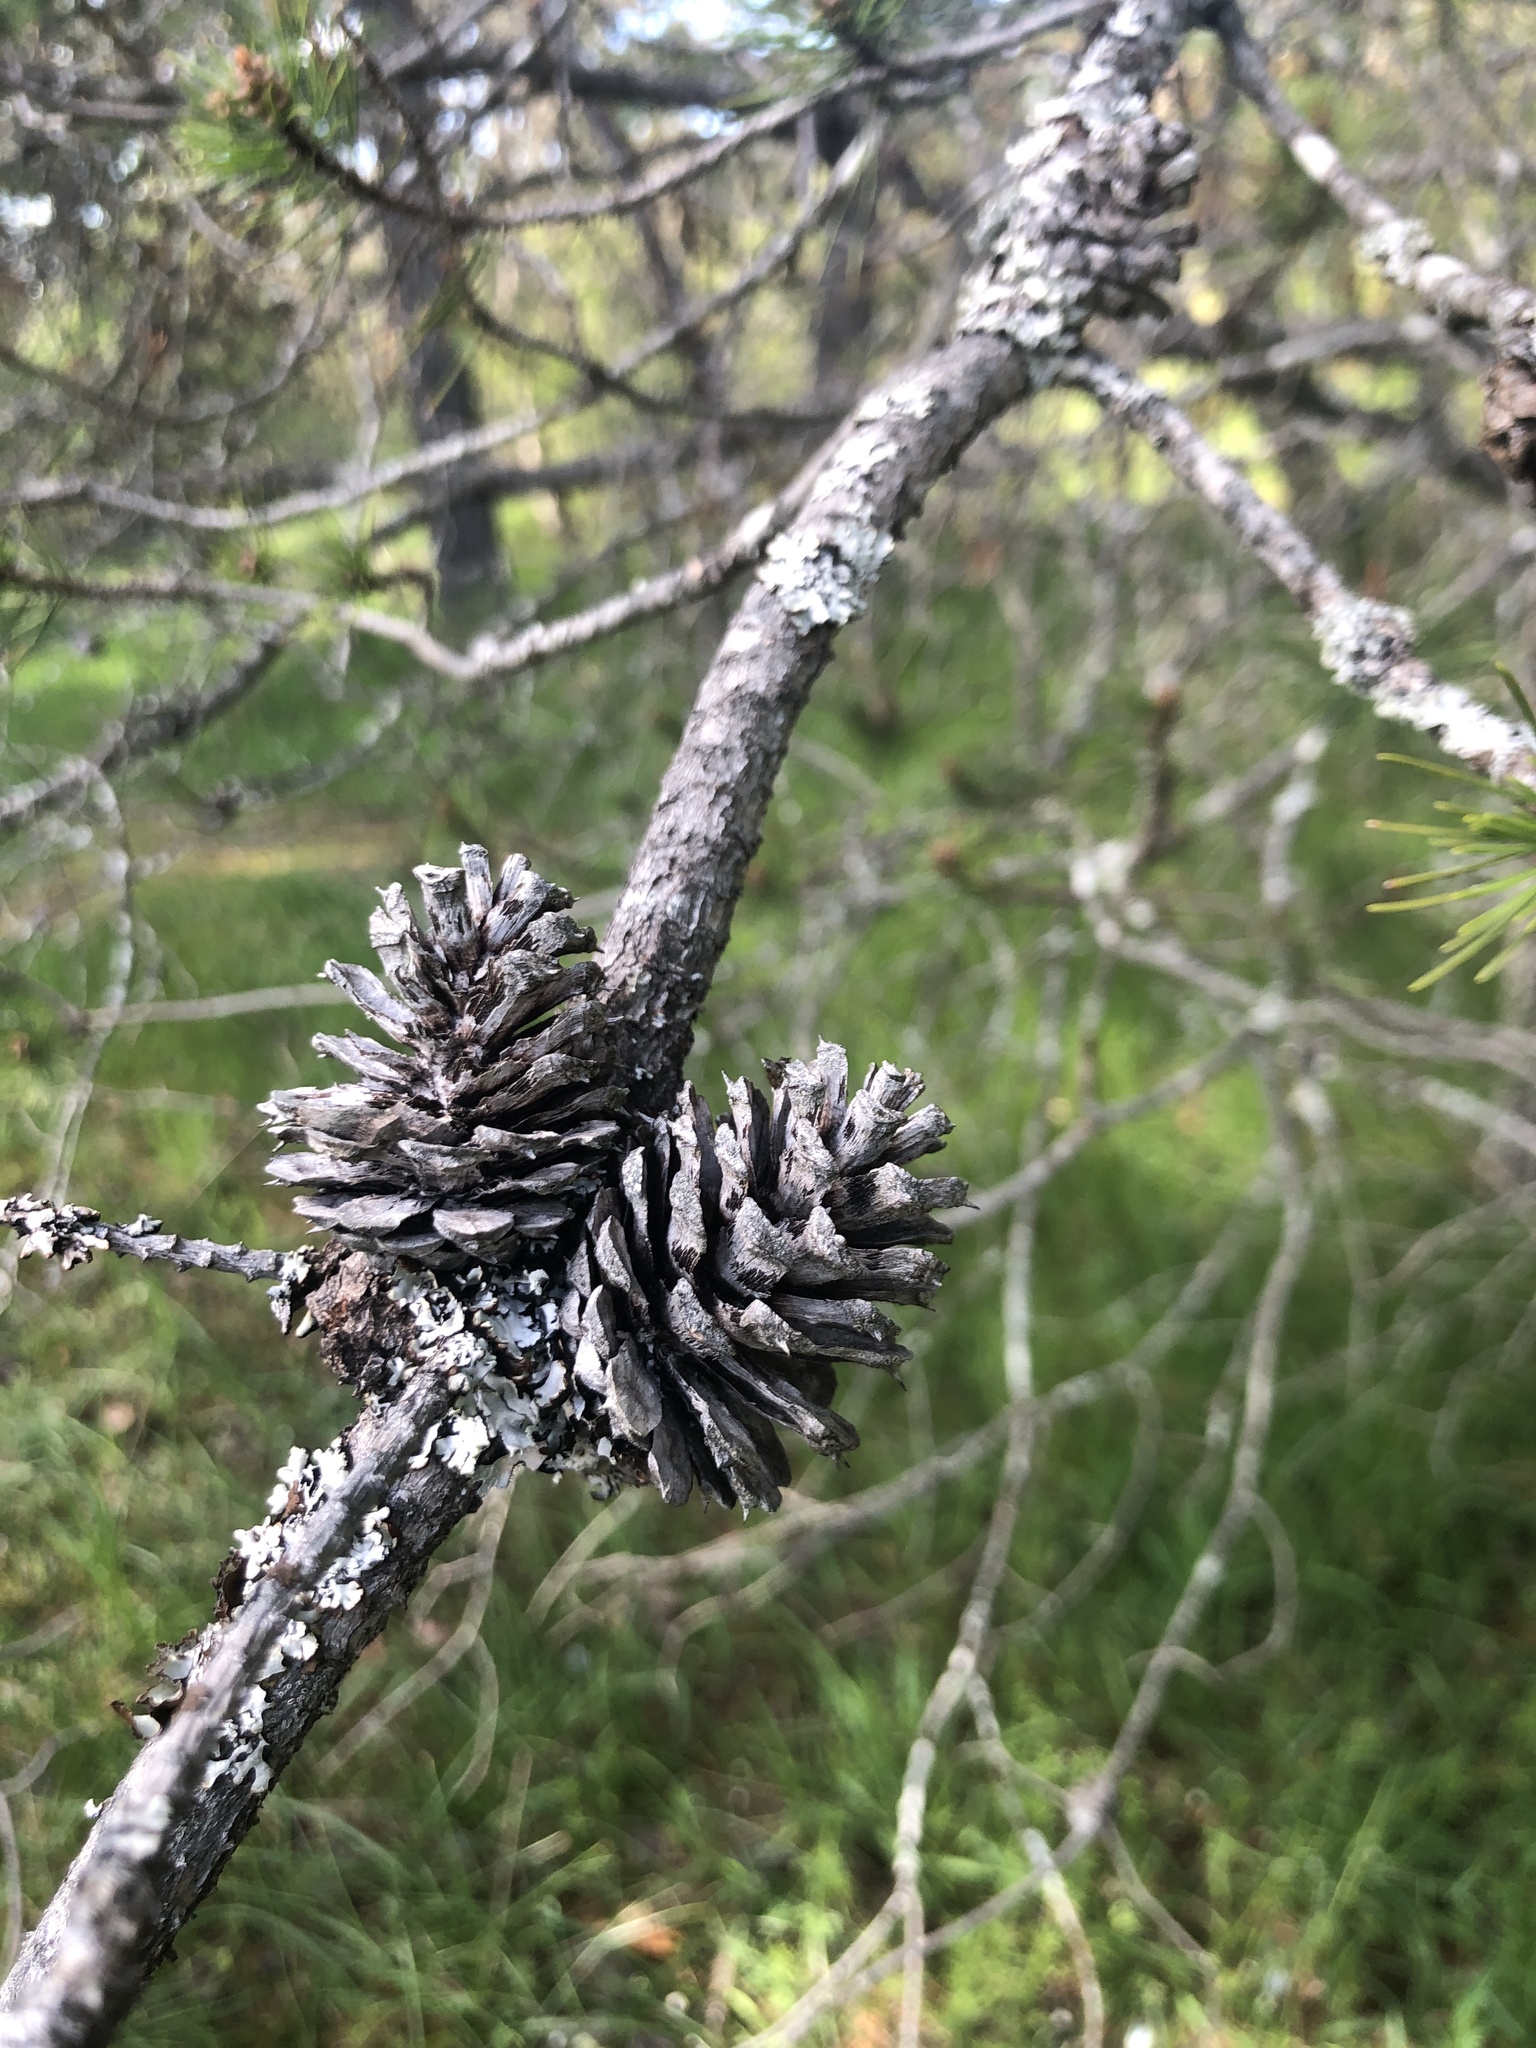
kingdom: Plantae
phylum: Tracheophyta
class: Pinopsida
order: Pinales
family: Pinaceae
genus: Pinus
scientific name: Pinus contorta
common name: Lodgepole pine
